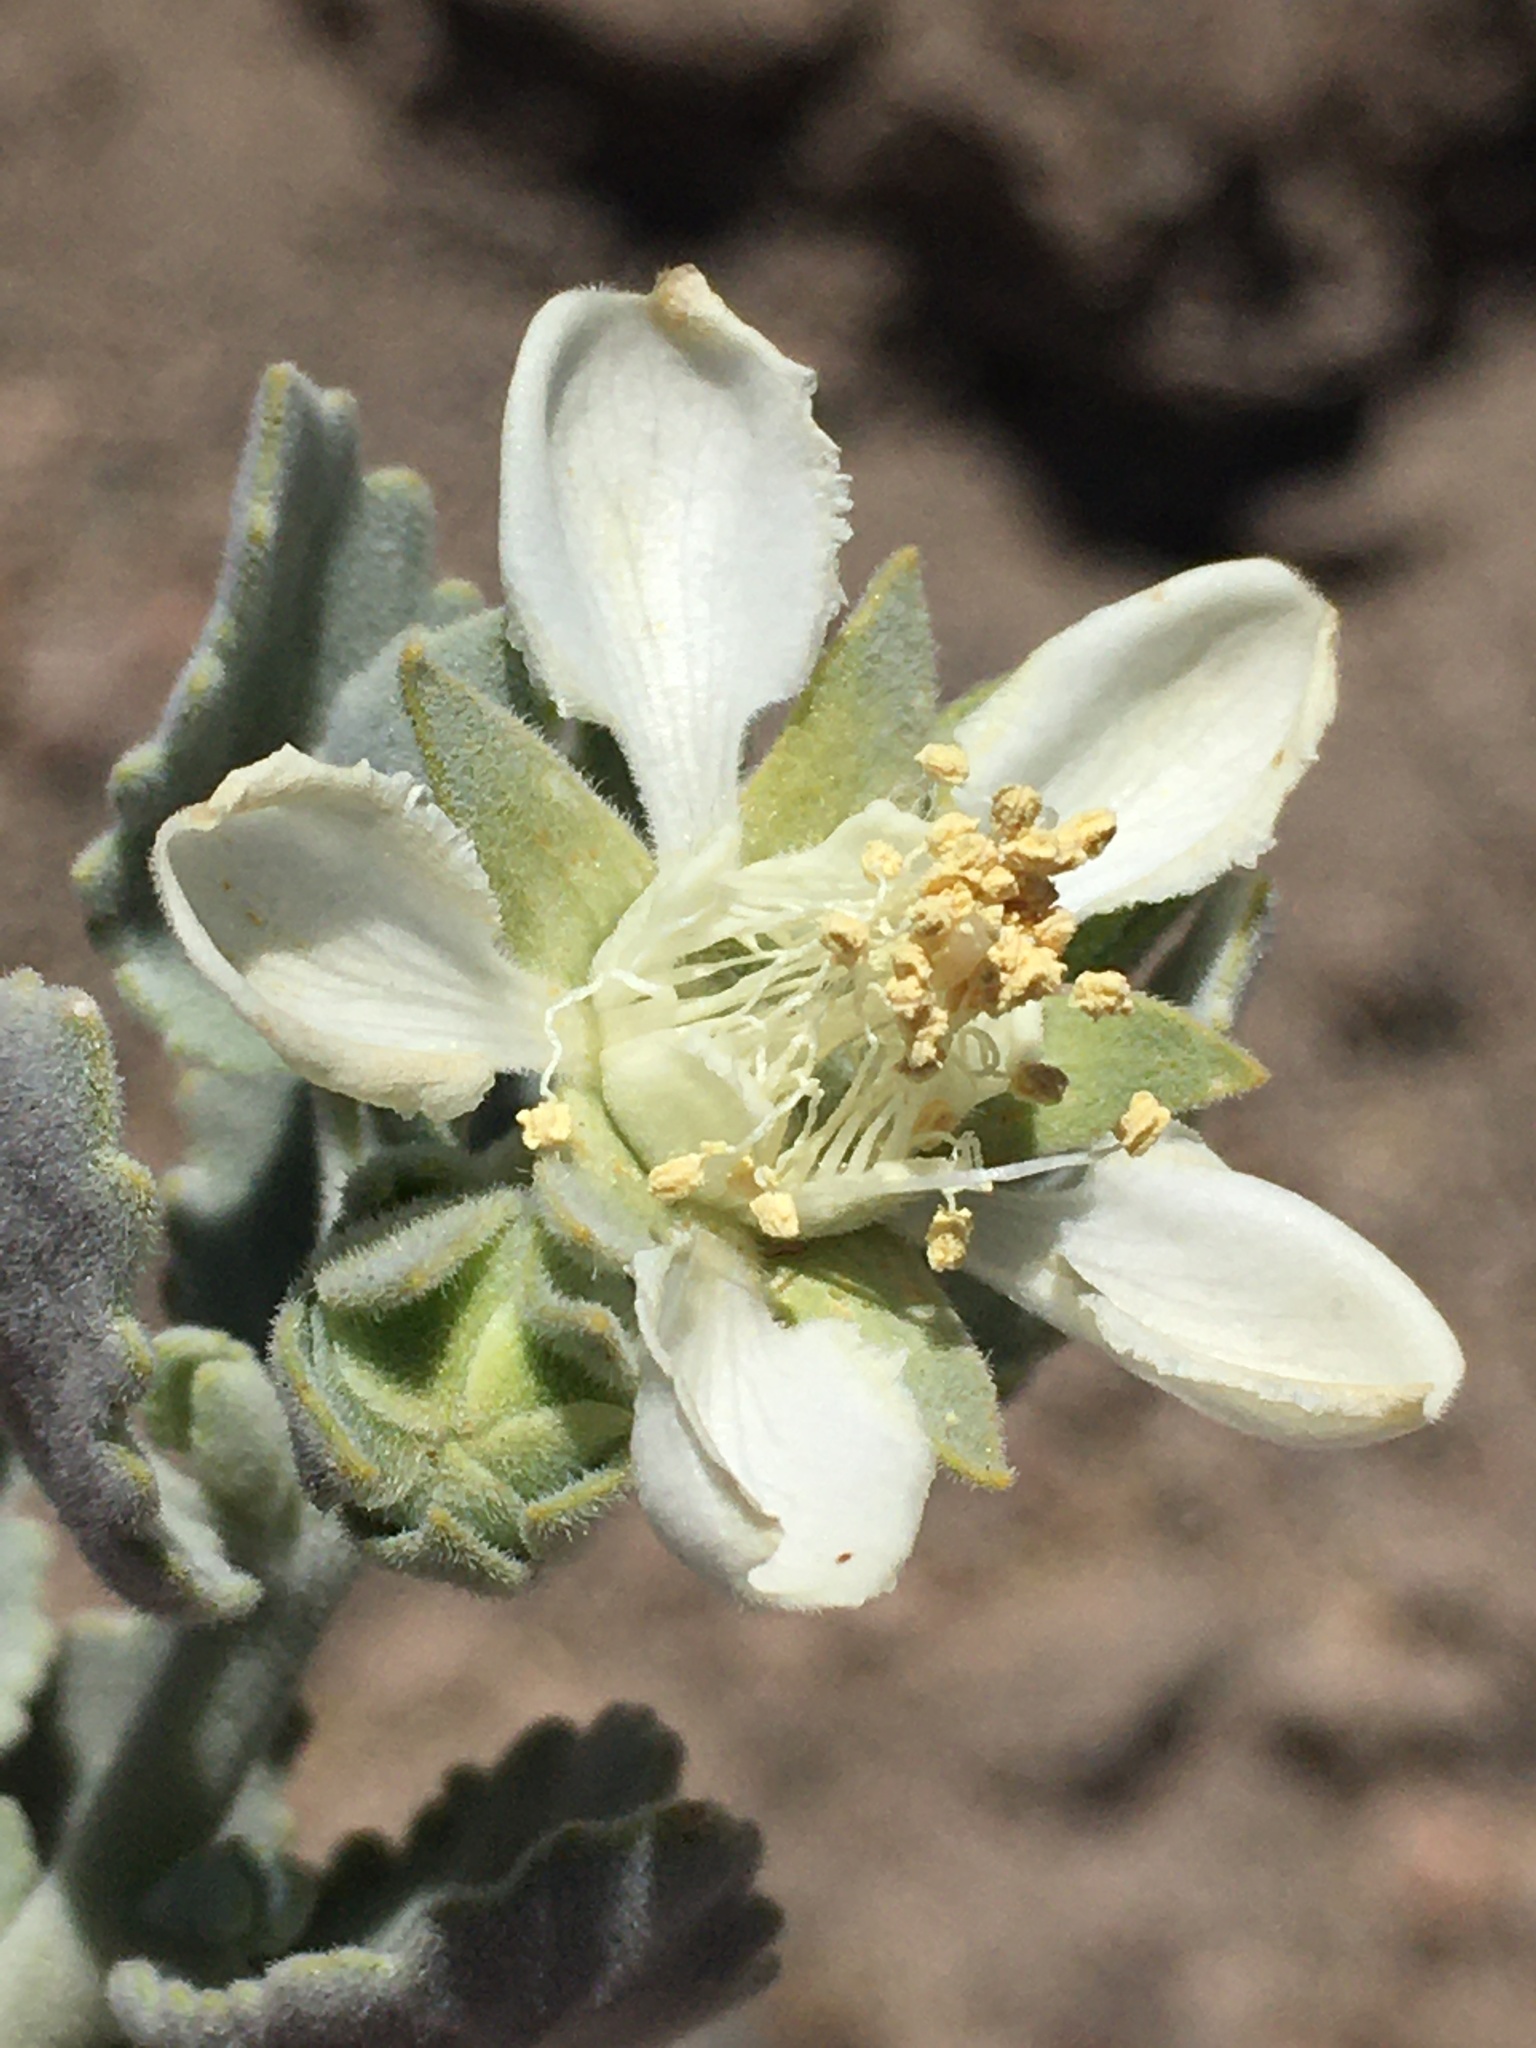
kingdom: Plantae
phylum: Tracheophyta
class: Magnoliopsida
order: Cornales
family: Loasaceae
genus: Huidobria
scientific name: Huidobria fruticosa
